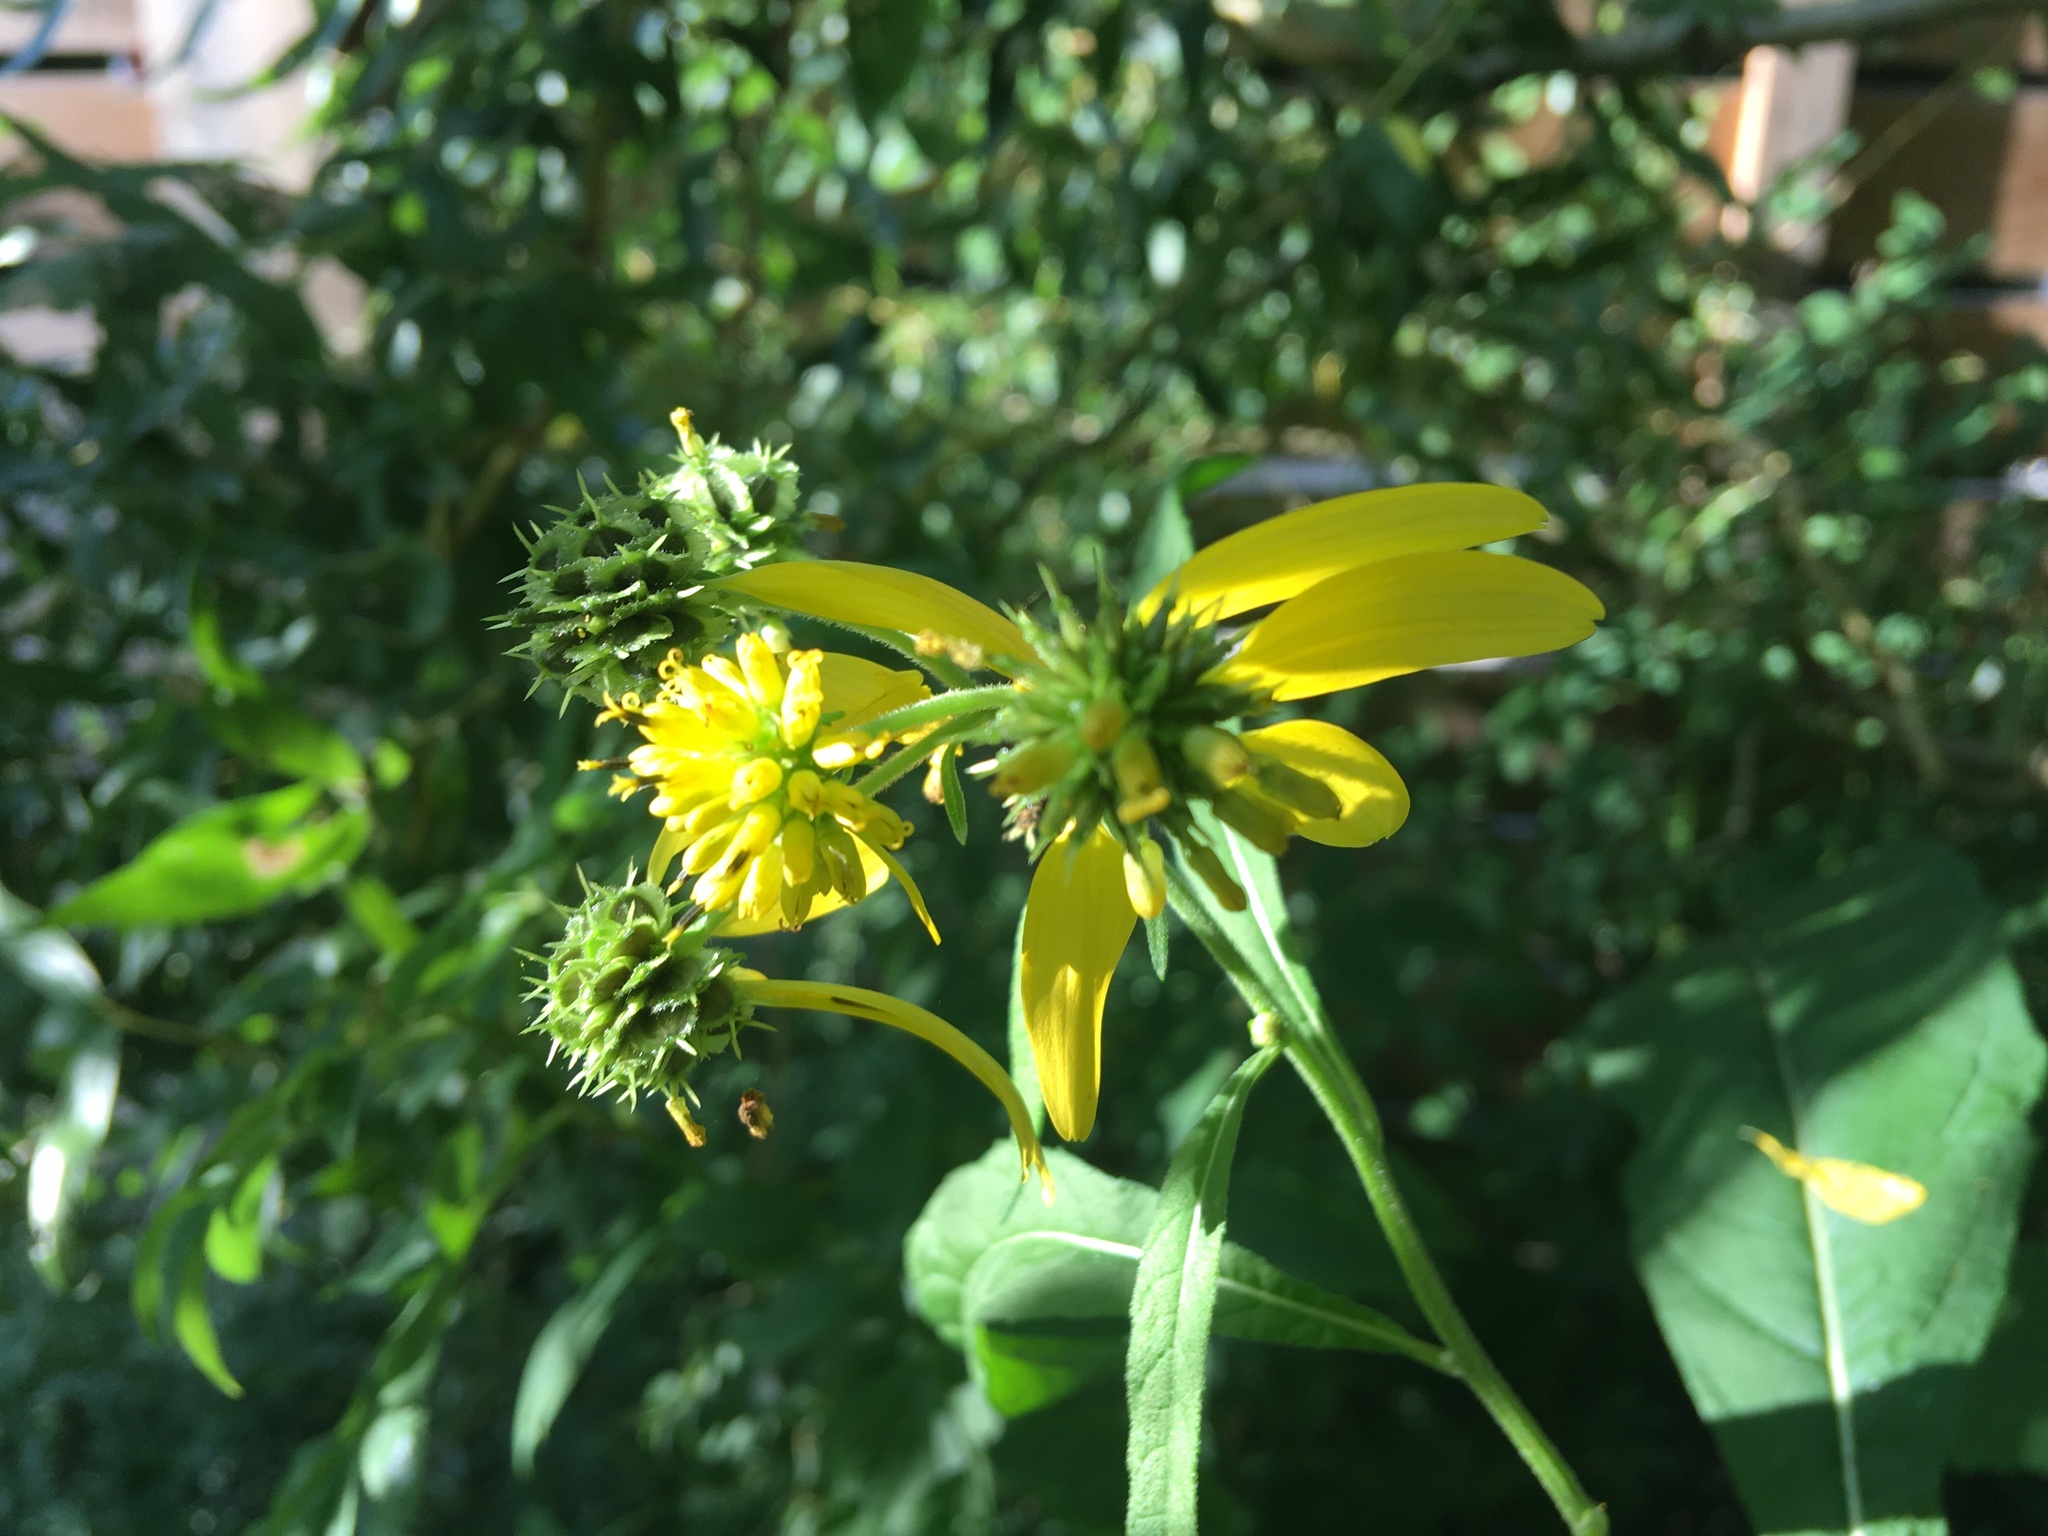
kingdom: Plantae
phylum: Tracheophyta
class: Magnoliopsida
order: Asterales
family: Asteraceae
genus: Verbesina
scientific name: Verbesina alternifolia
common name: Wingstem
